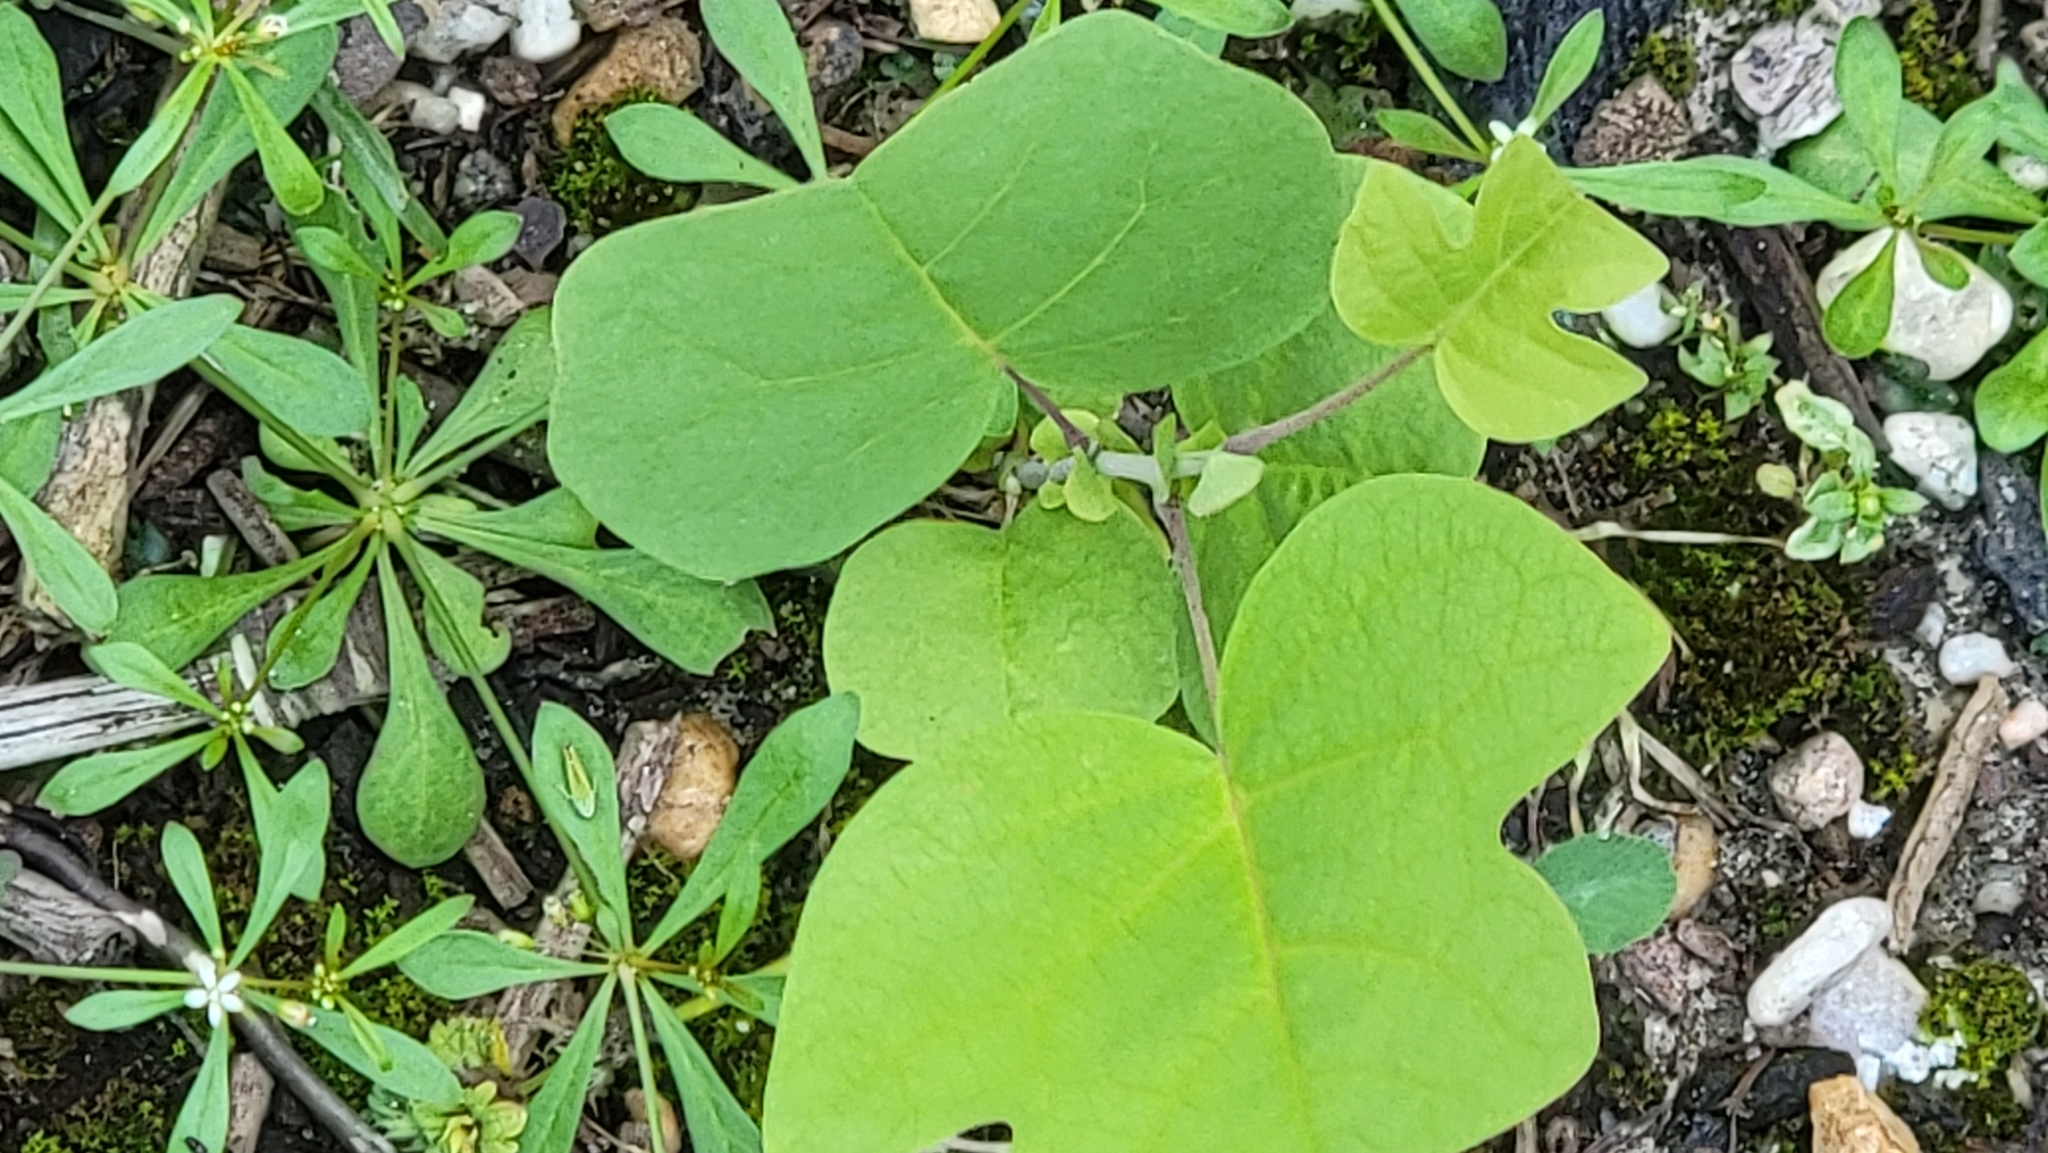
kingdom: Plantae
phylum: Tracheophyta
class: Magnoliopsida
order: Magnoliales
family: Magnoliaceae
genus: Liriodendron
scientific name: Liriodendron tulipifera
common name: Tulip tree
